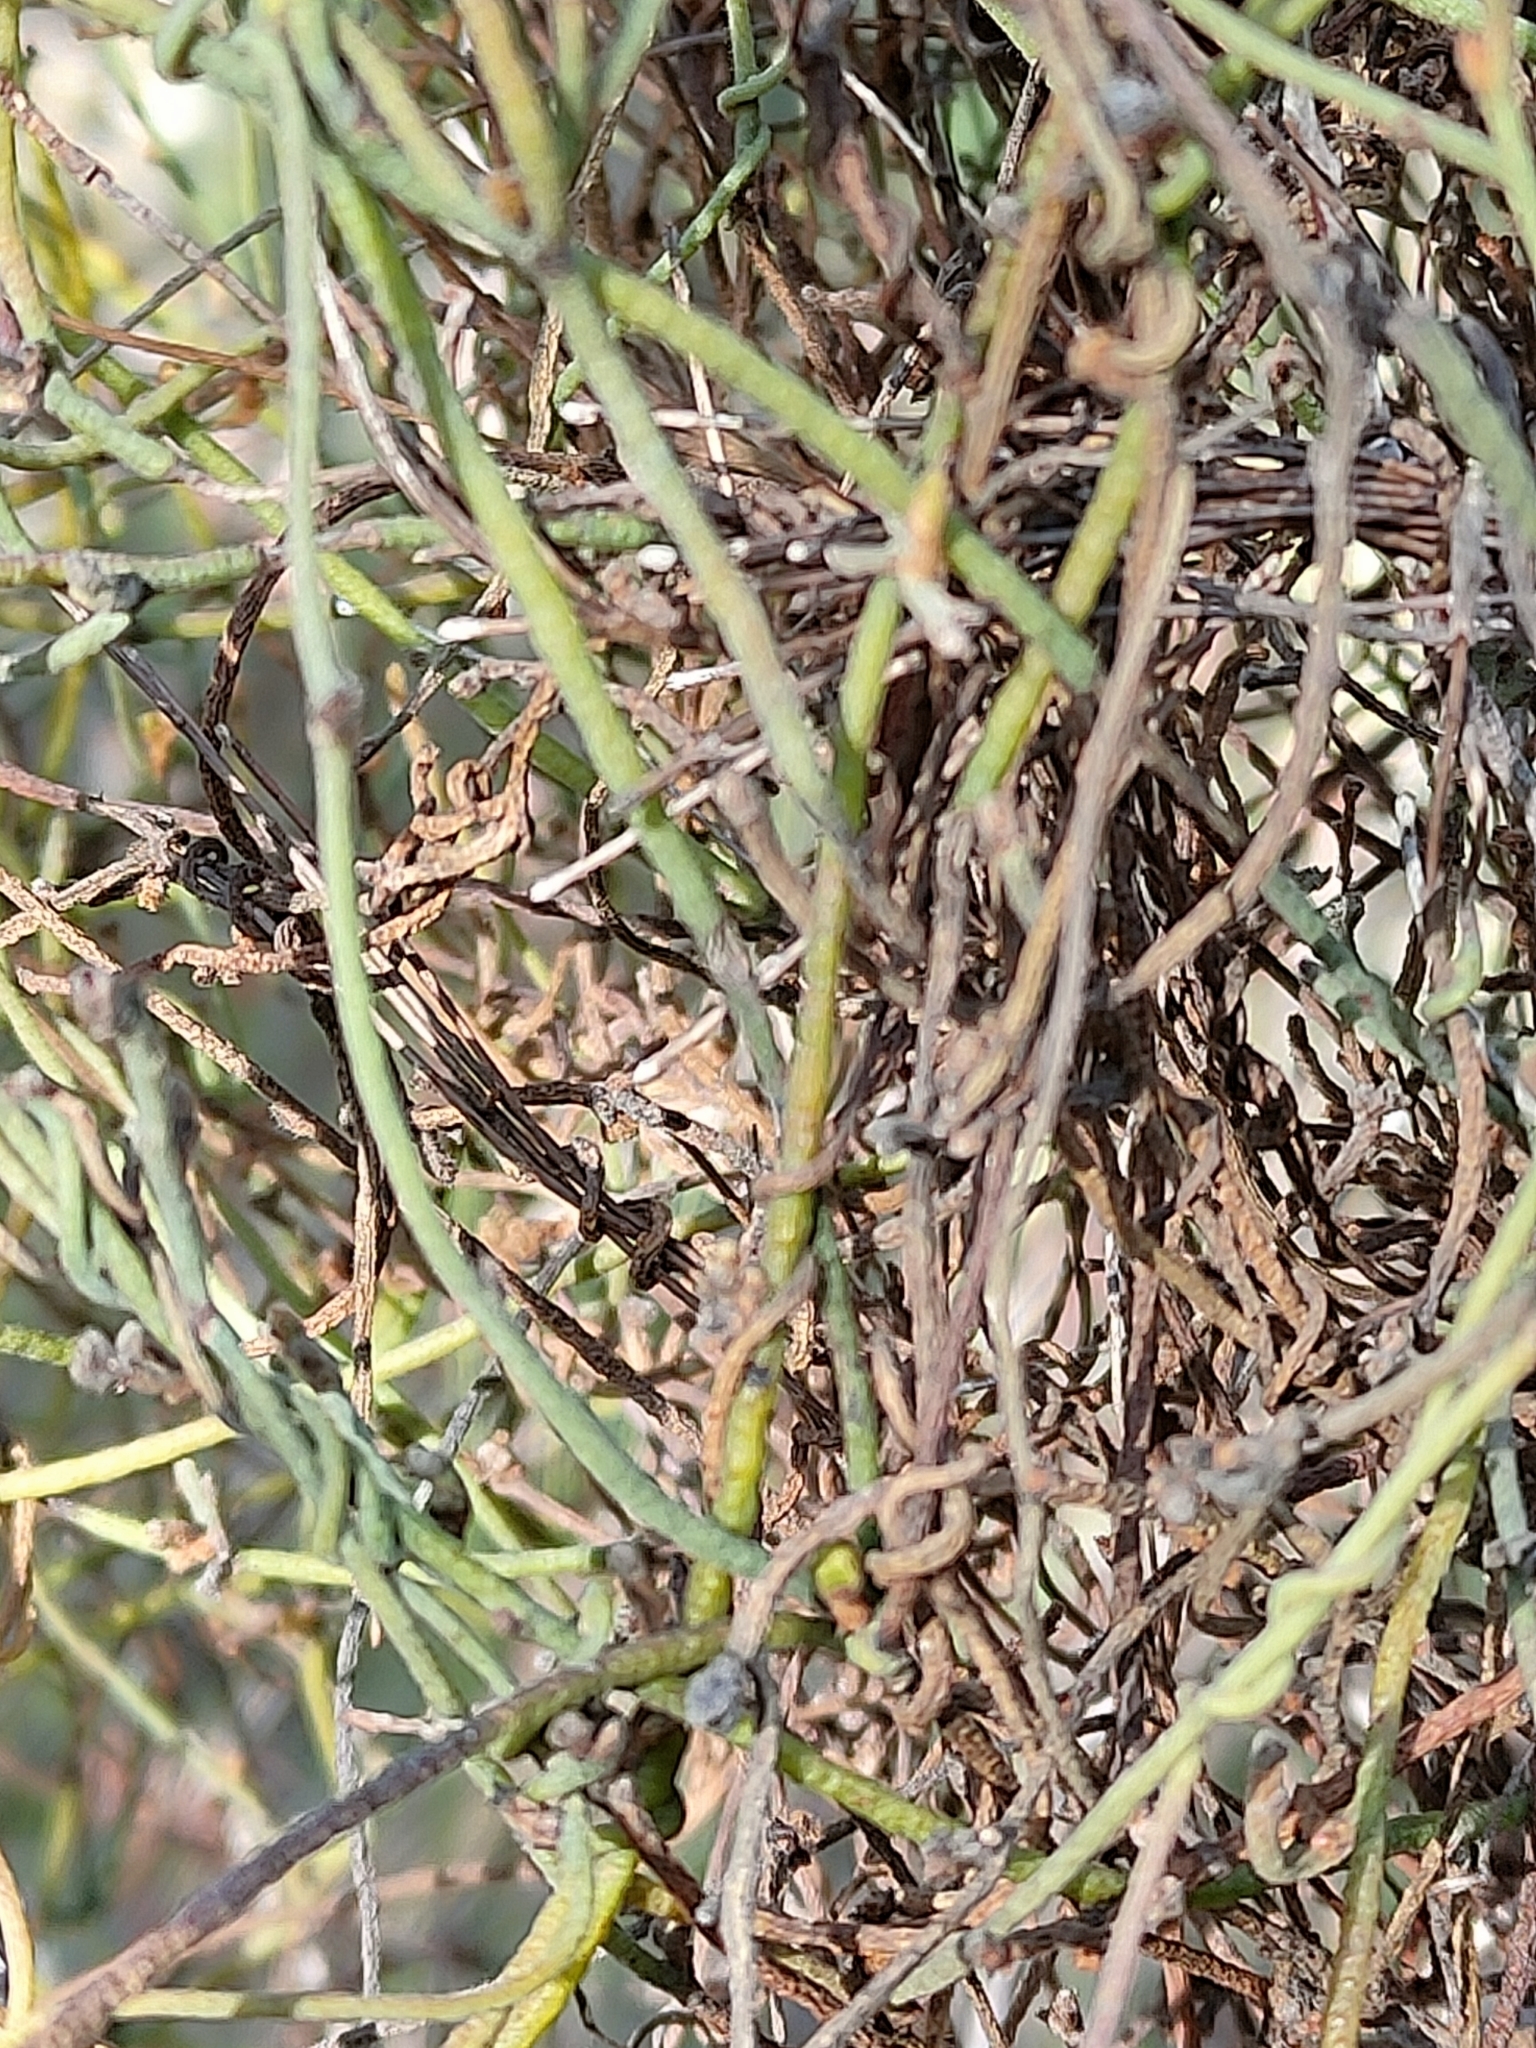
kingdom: Plantae
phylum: Tracheophyta
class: Magnoliopsida
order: Laurales
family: Lauraceae
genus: Cassytha
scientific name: Cassytha pubescens
